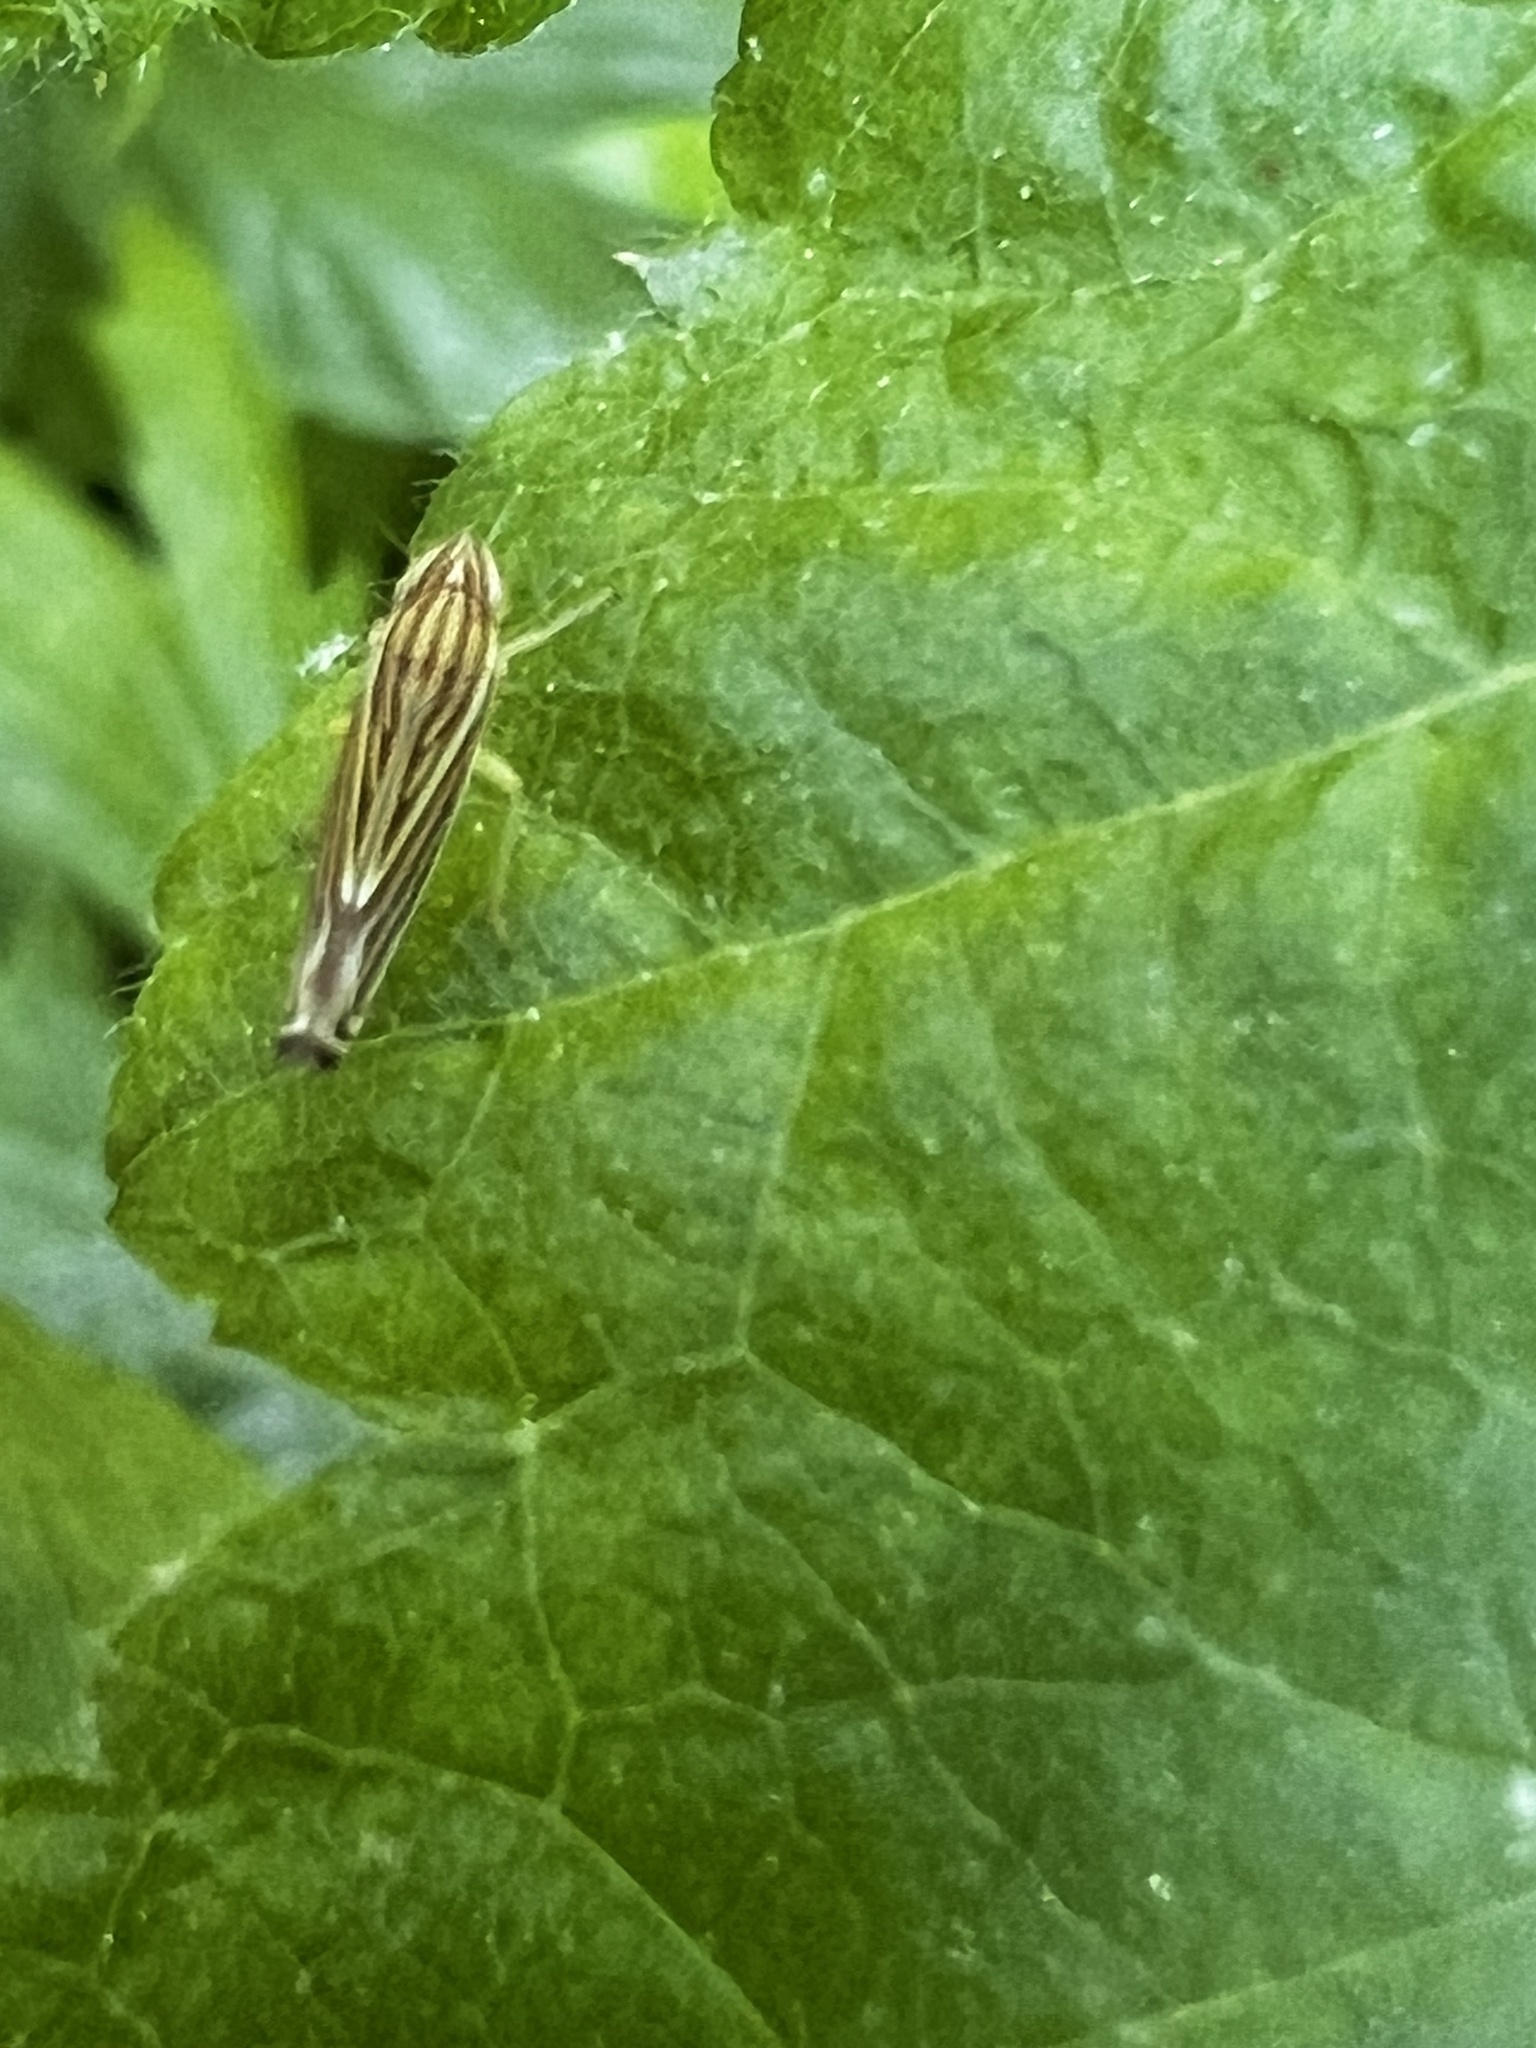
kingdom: Animalia
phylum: Arthropoda
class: Insecta
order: Hemiptera
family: Cicadellidae
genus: Sibovia
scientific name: Sibovia occatoria
